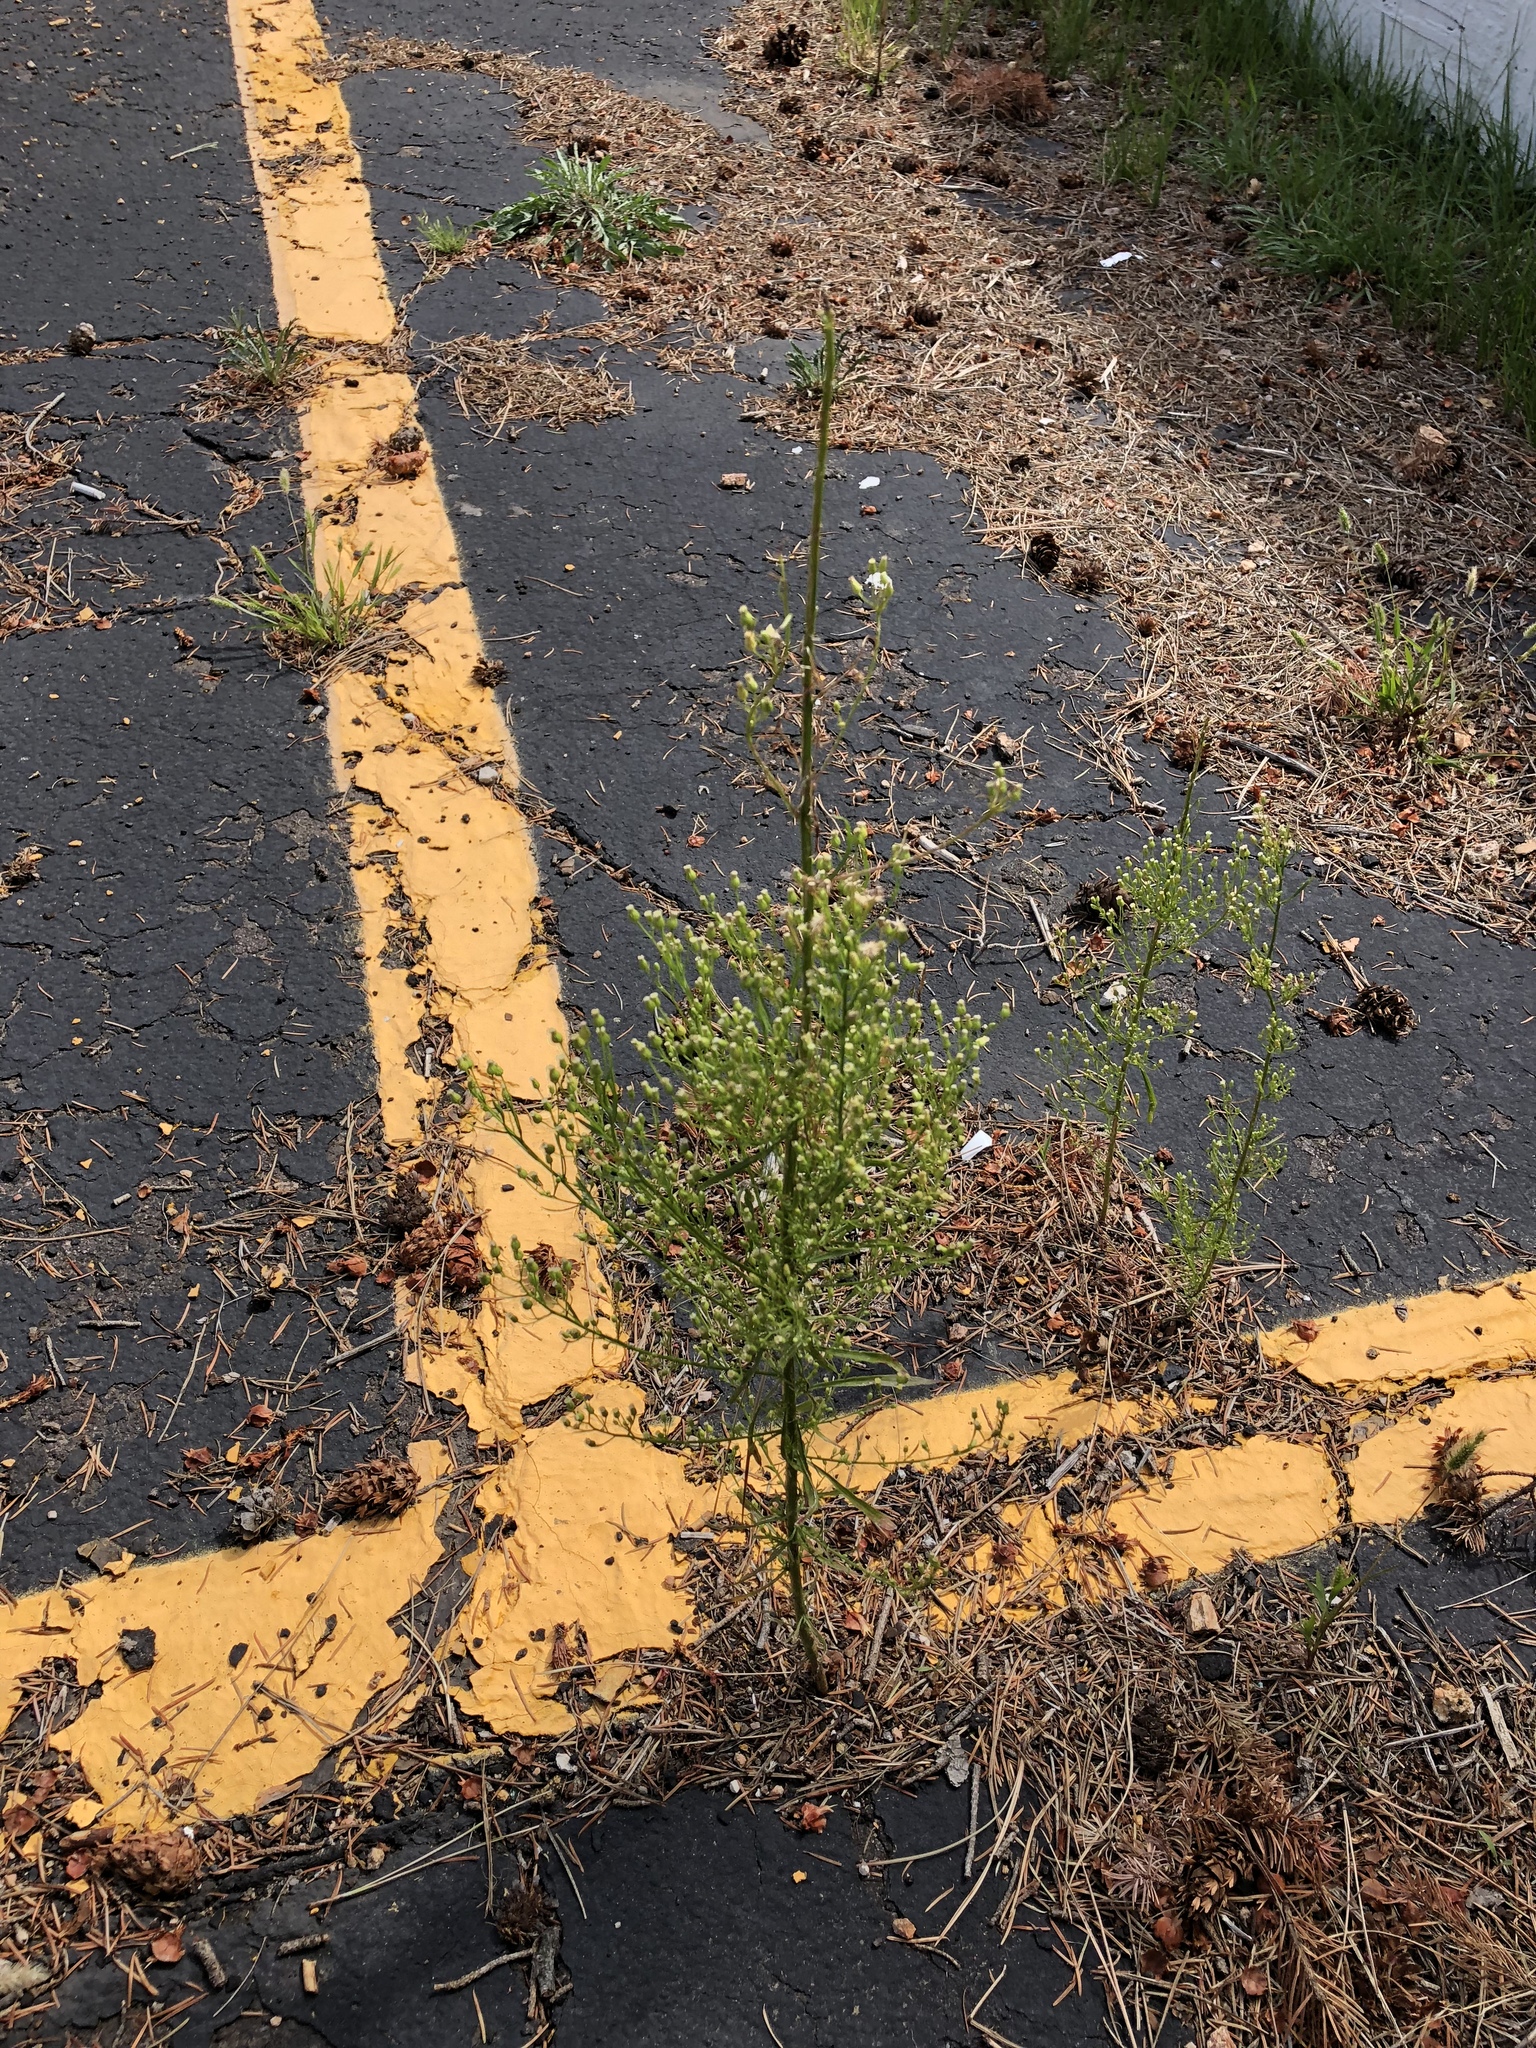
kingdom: Plantae
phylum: Tracheophyta
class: Magnoliopsida
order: Asterales
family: Asteraceae
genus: Erigeron
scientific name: Erigeron canadensis
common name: Canadian fleabane
